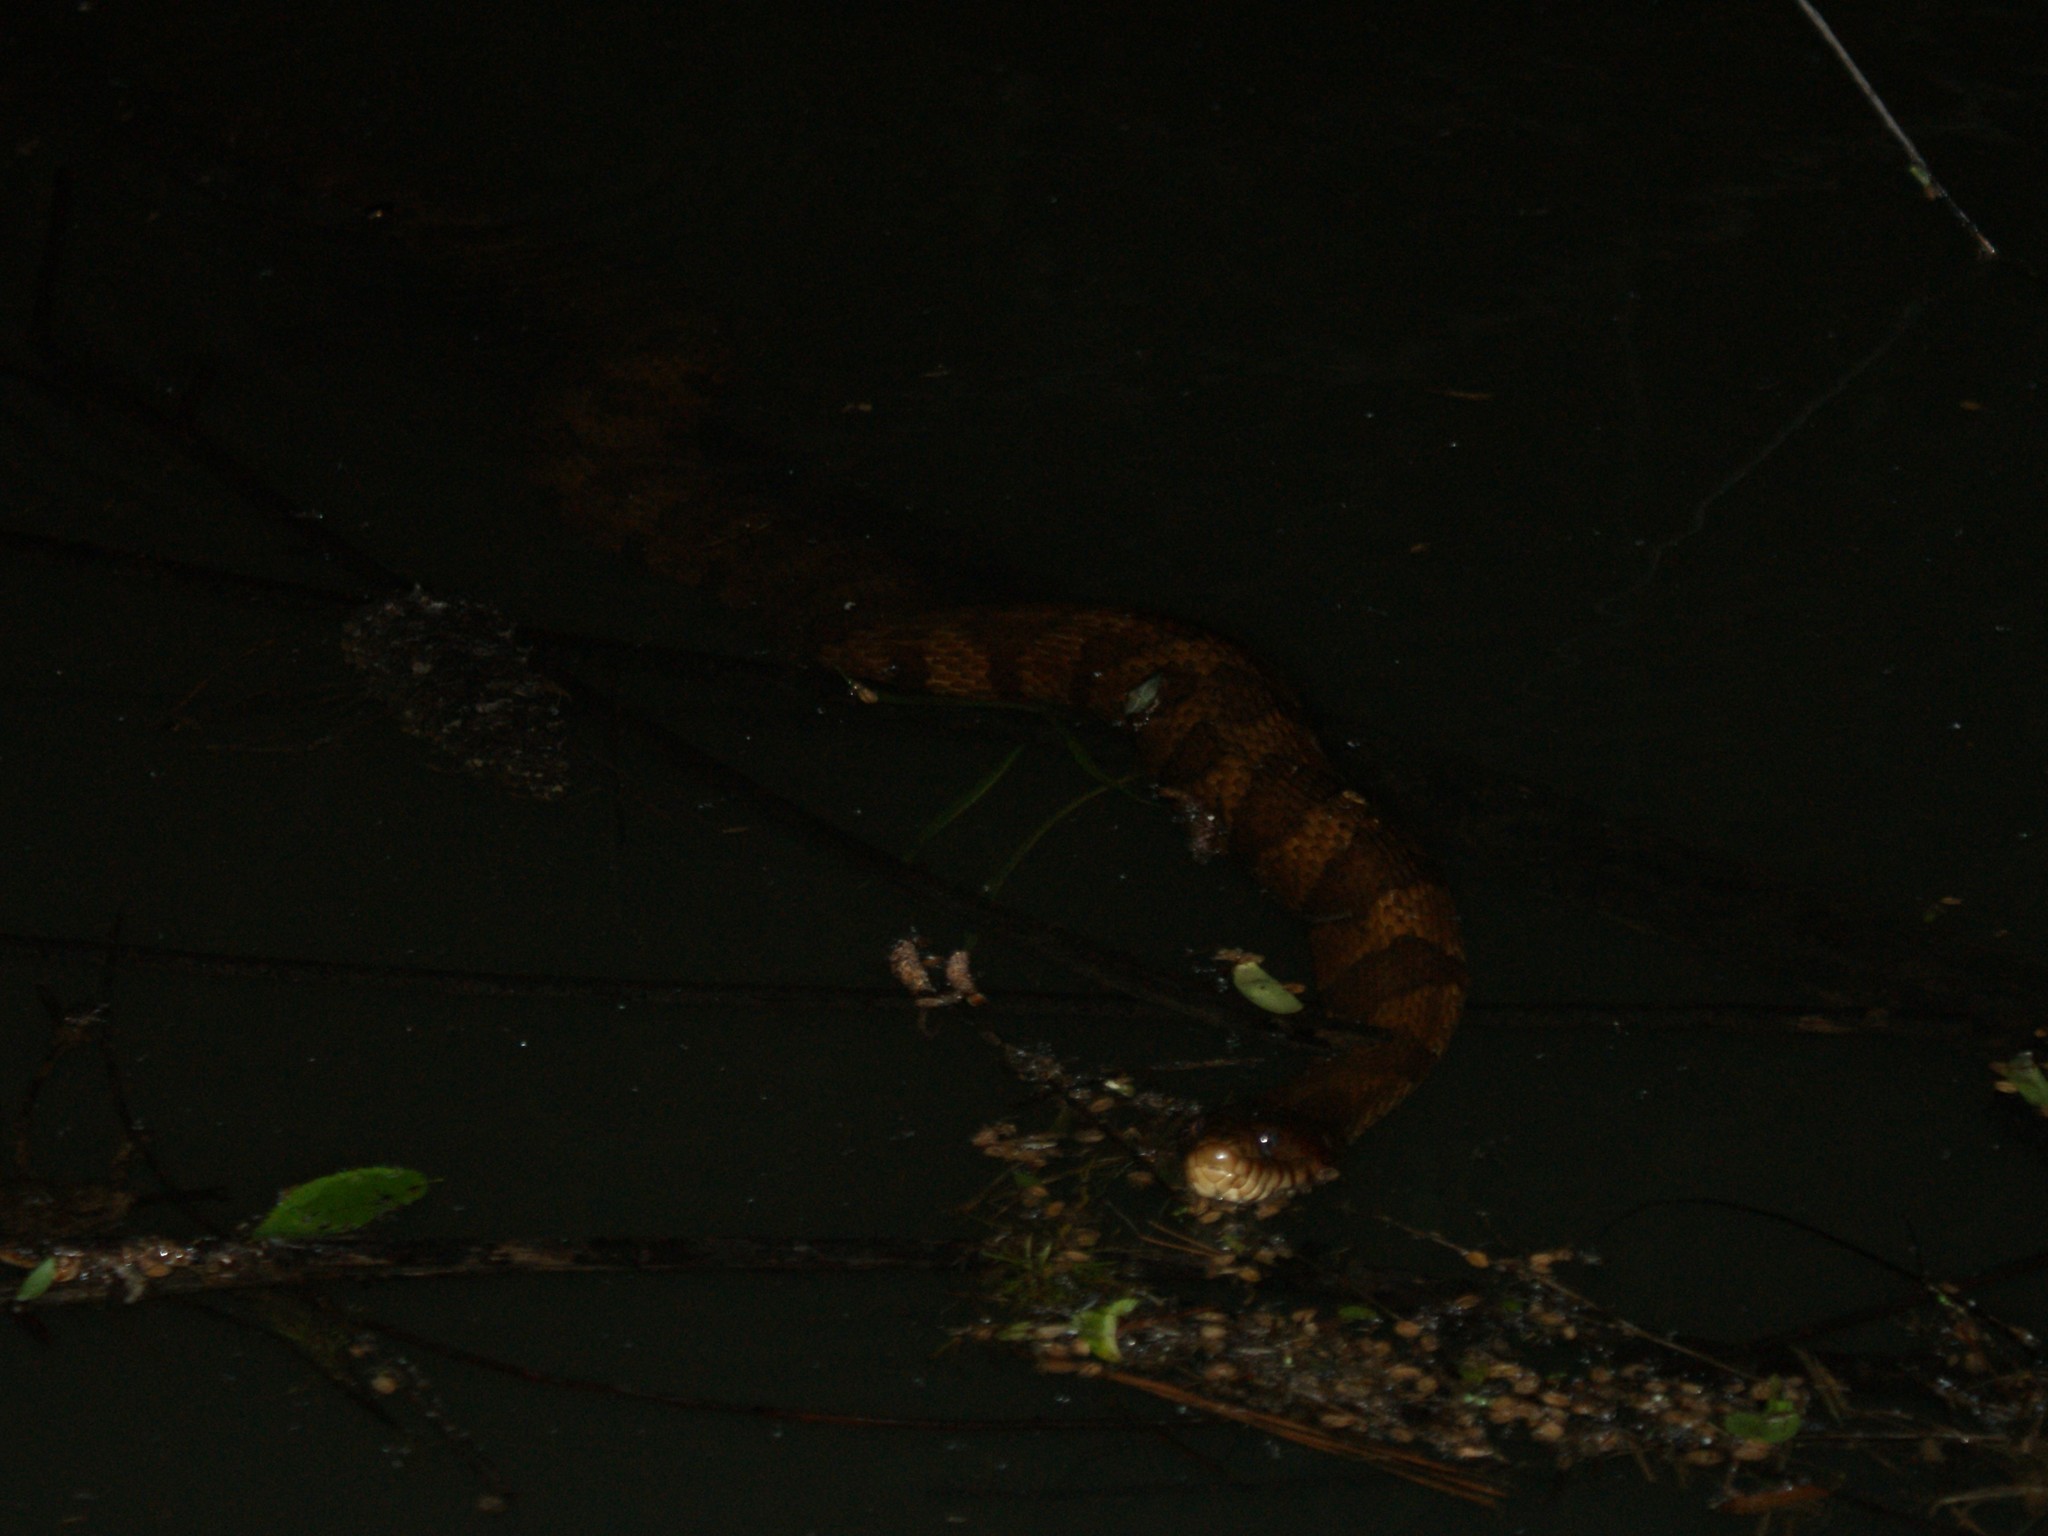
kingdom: Animalia
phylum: Chordata
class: Squamata
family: Colubridae
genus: Nerodia
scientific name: Nerodia sipedon
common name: Northern water snake
